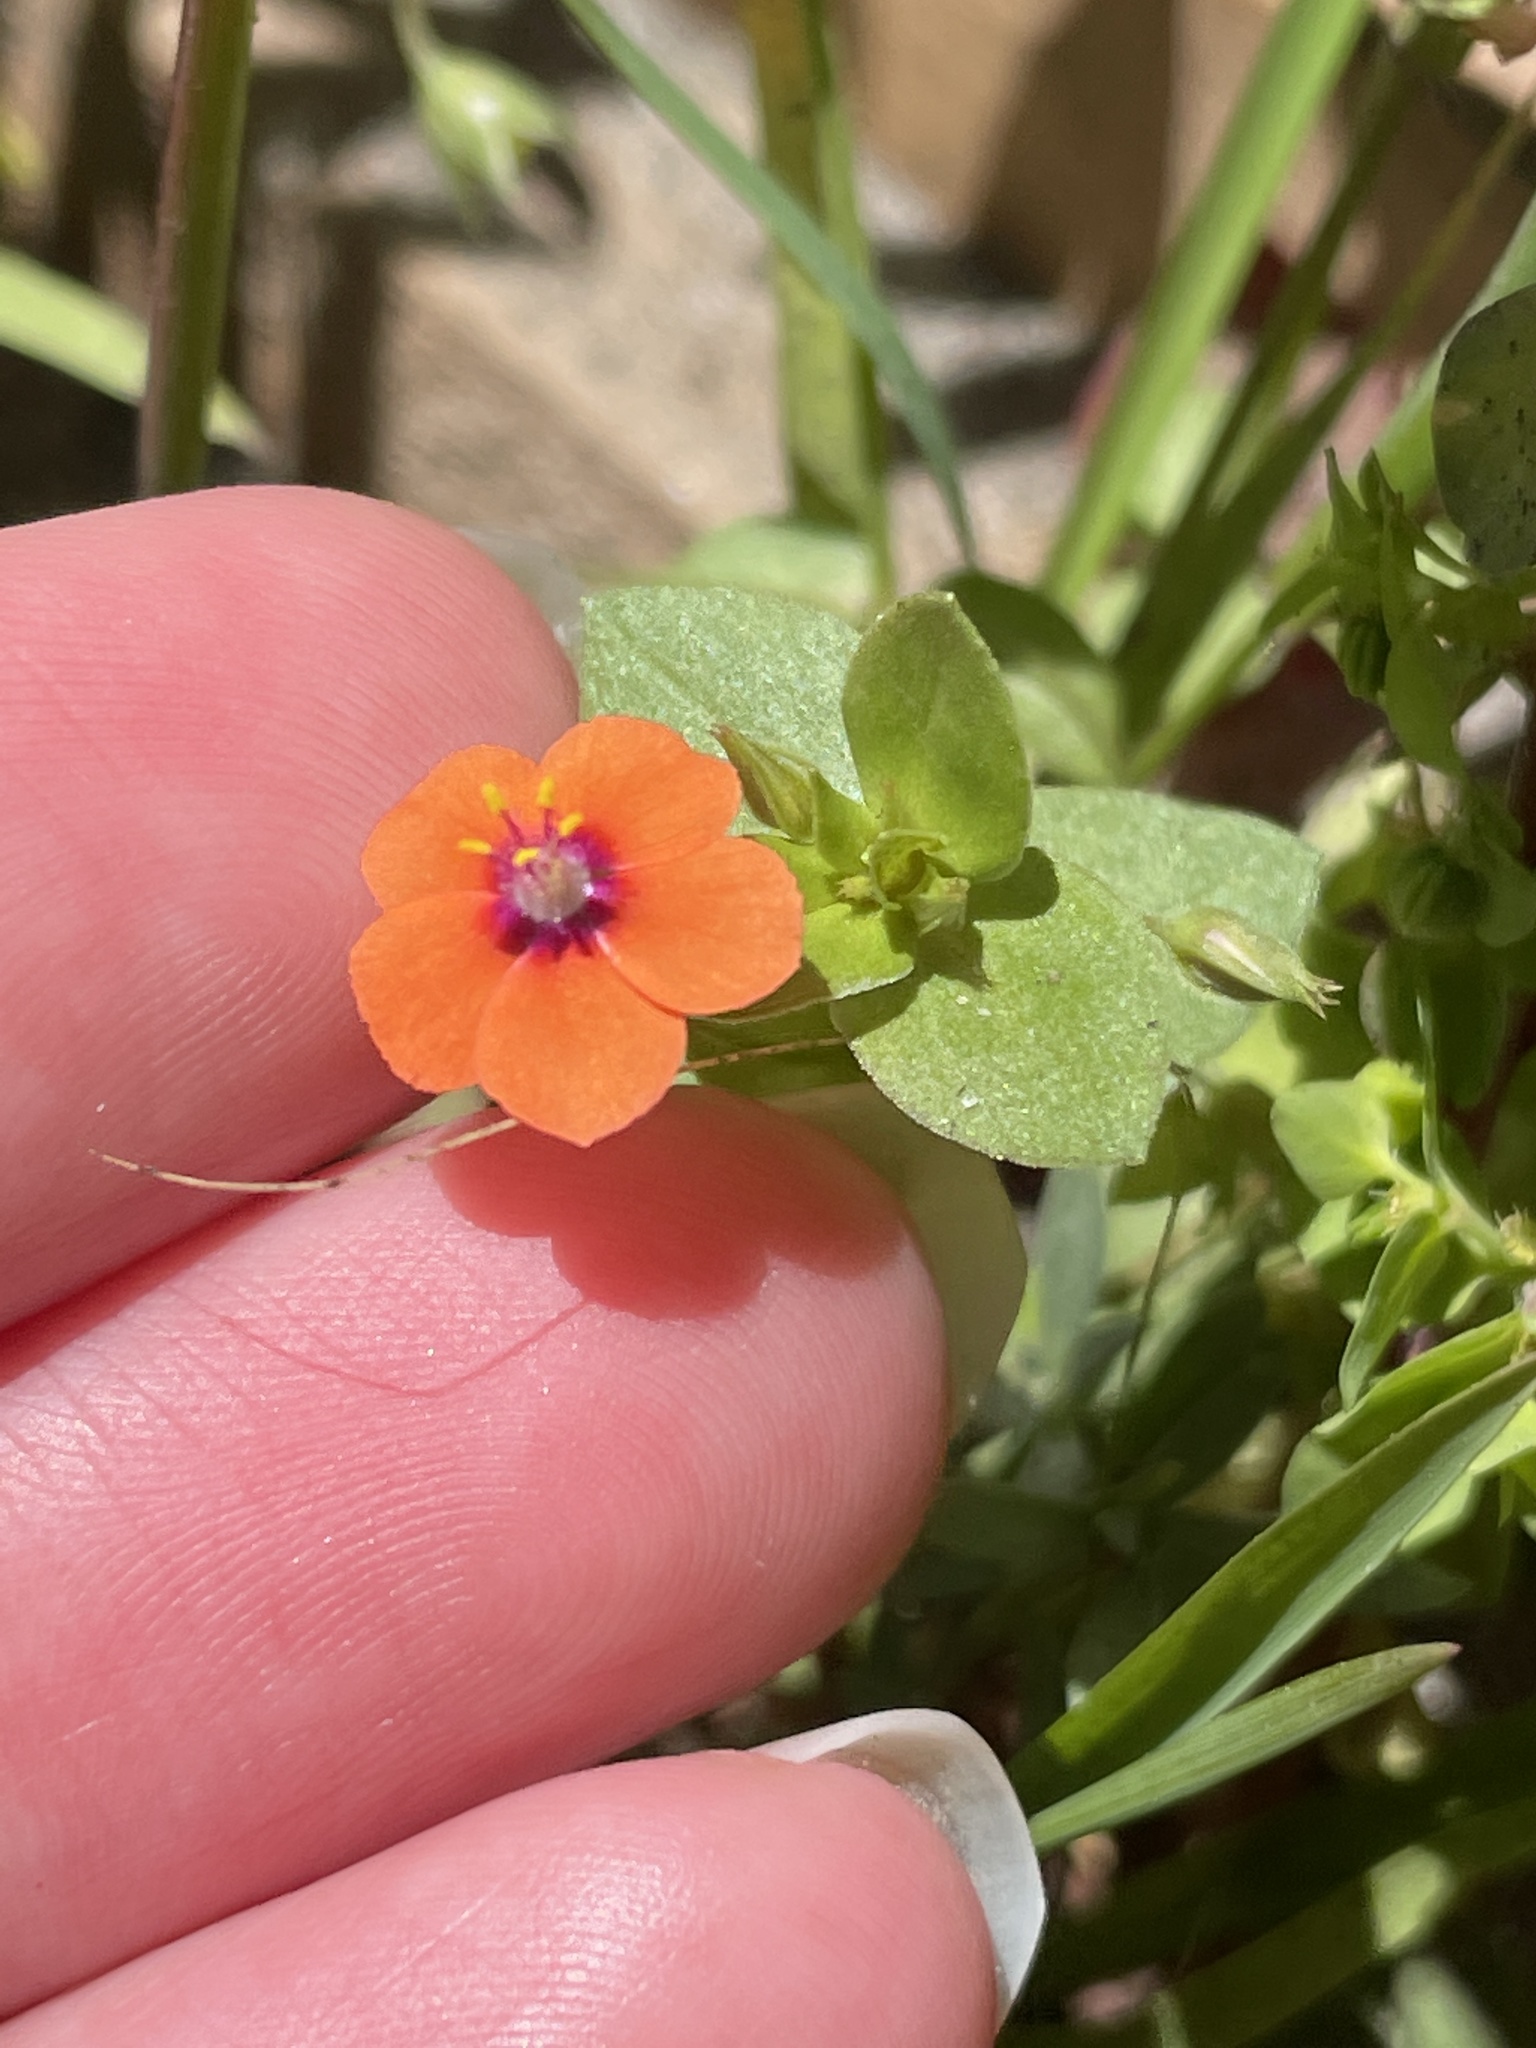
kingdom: Plantae
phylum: Tracheophyta
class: Magnoliopsida
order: Ericales
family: Primulaceae
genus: Lysimachia
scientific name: Lysimachia arvensis
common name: Scarlet pimpernel
